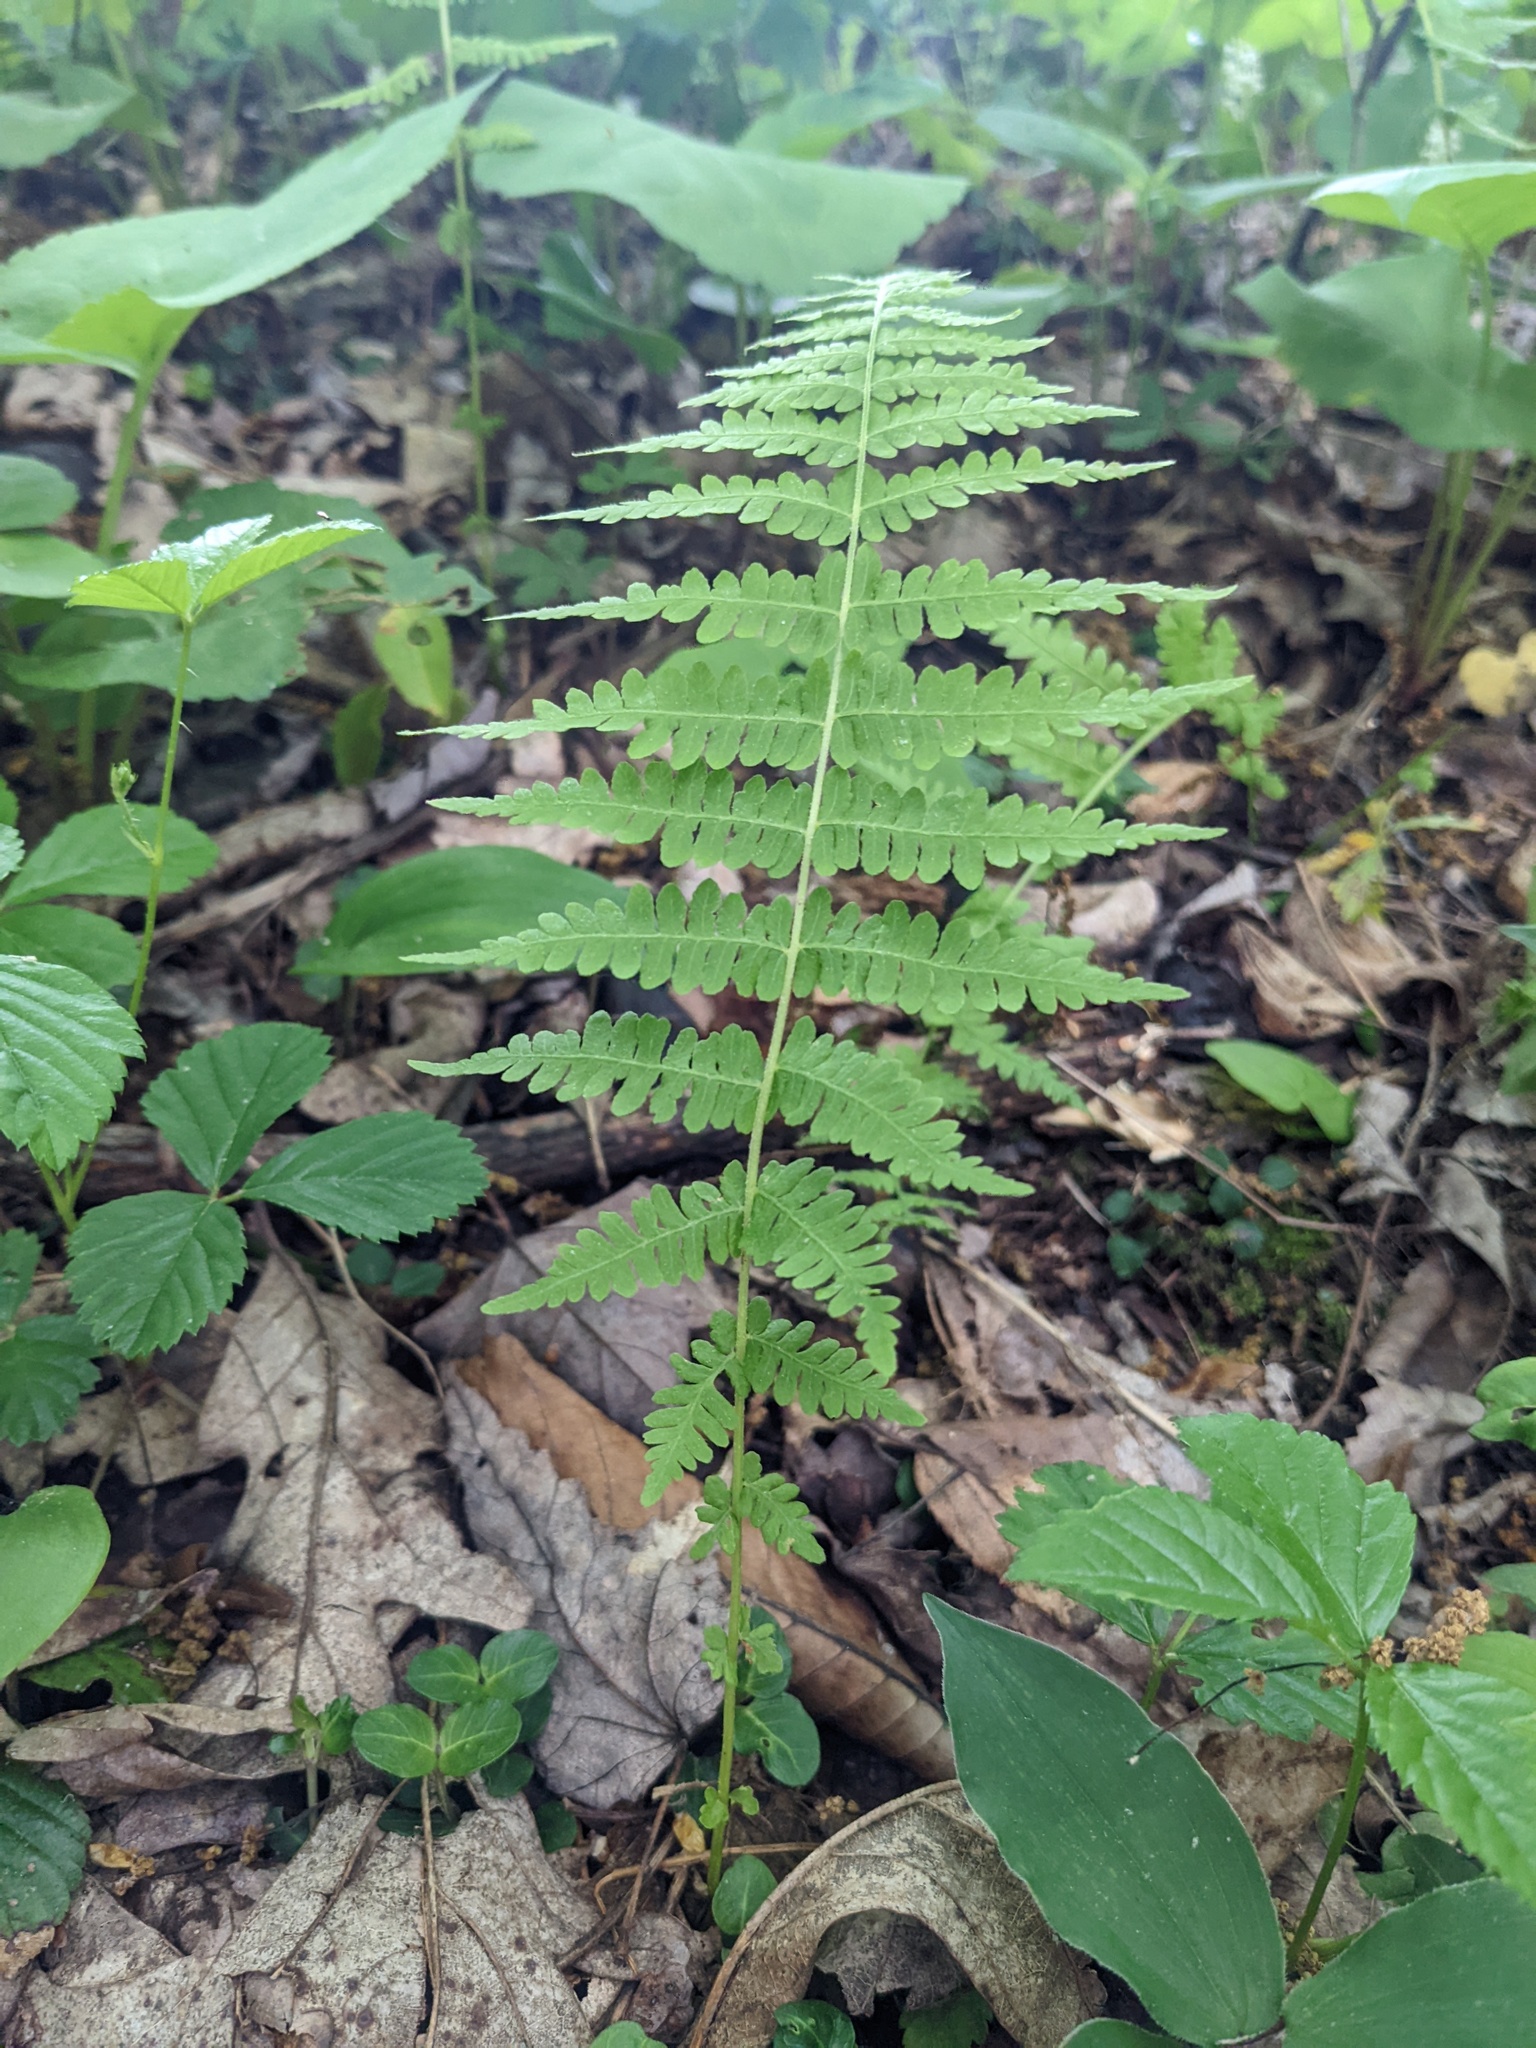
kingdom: Plantae
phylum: Tracheophyta
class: Polypodiopsida
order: Polypodiales
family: Thelypteridaceae
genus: Amauropelta
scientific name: Amauropelta noveboracensis
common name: New york fern
